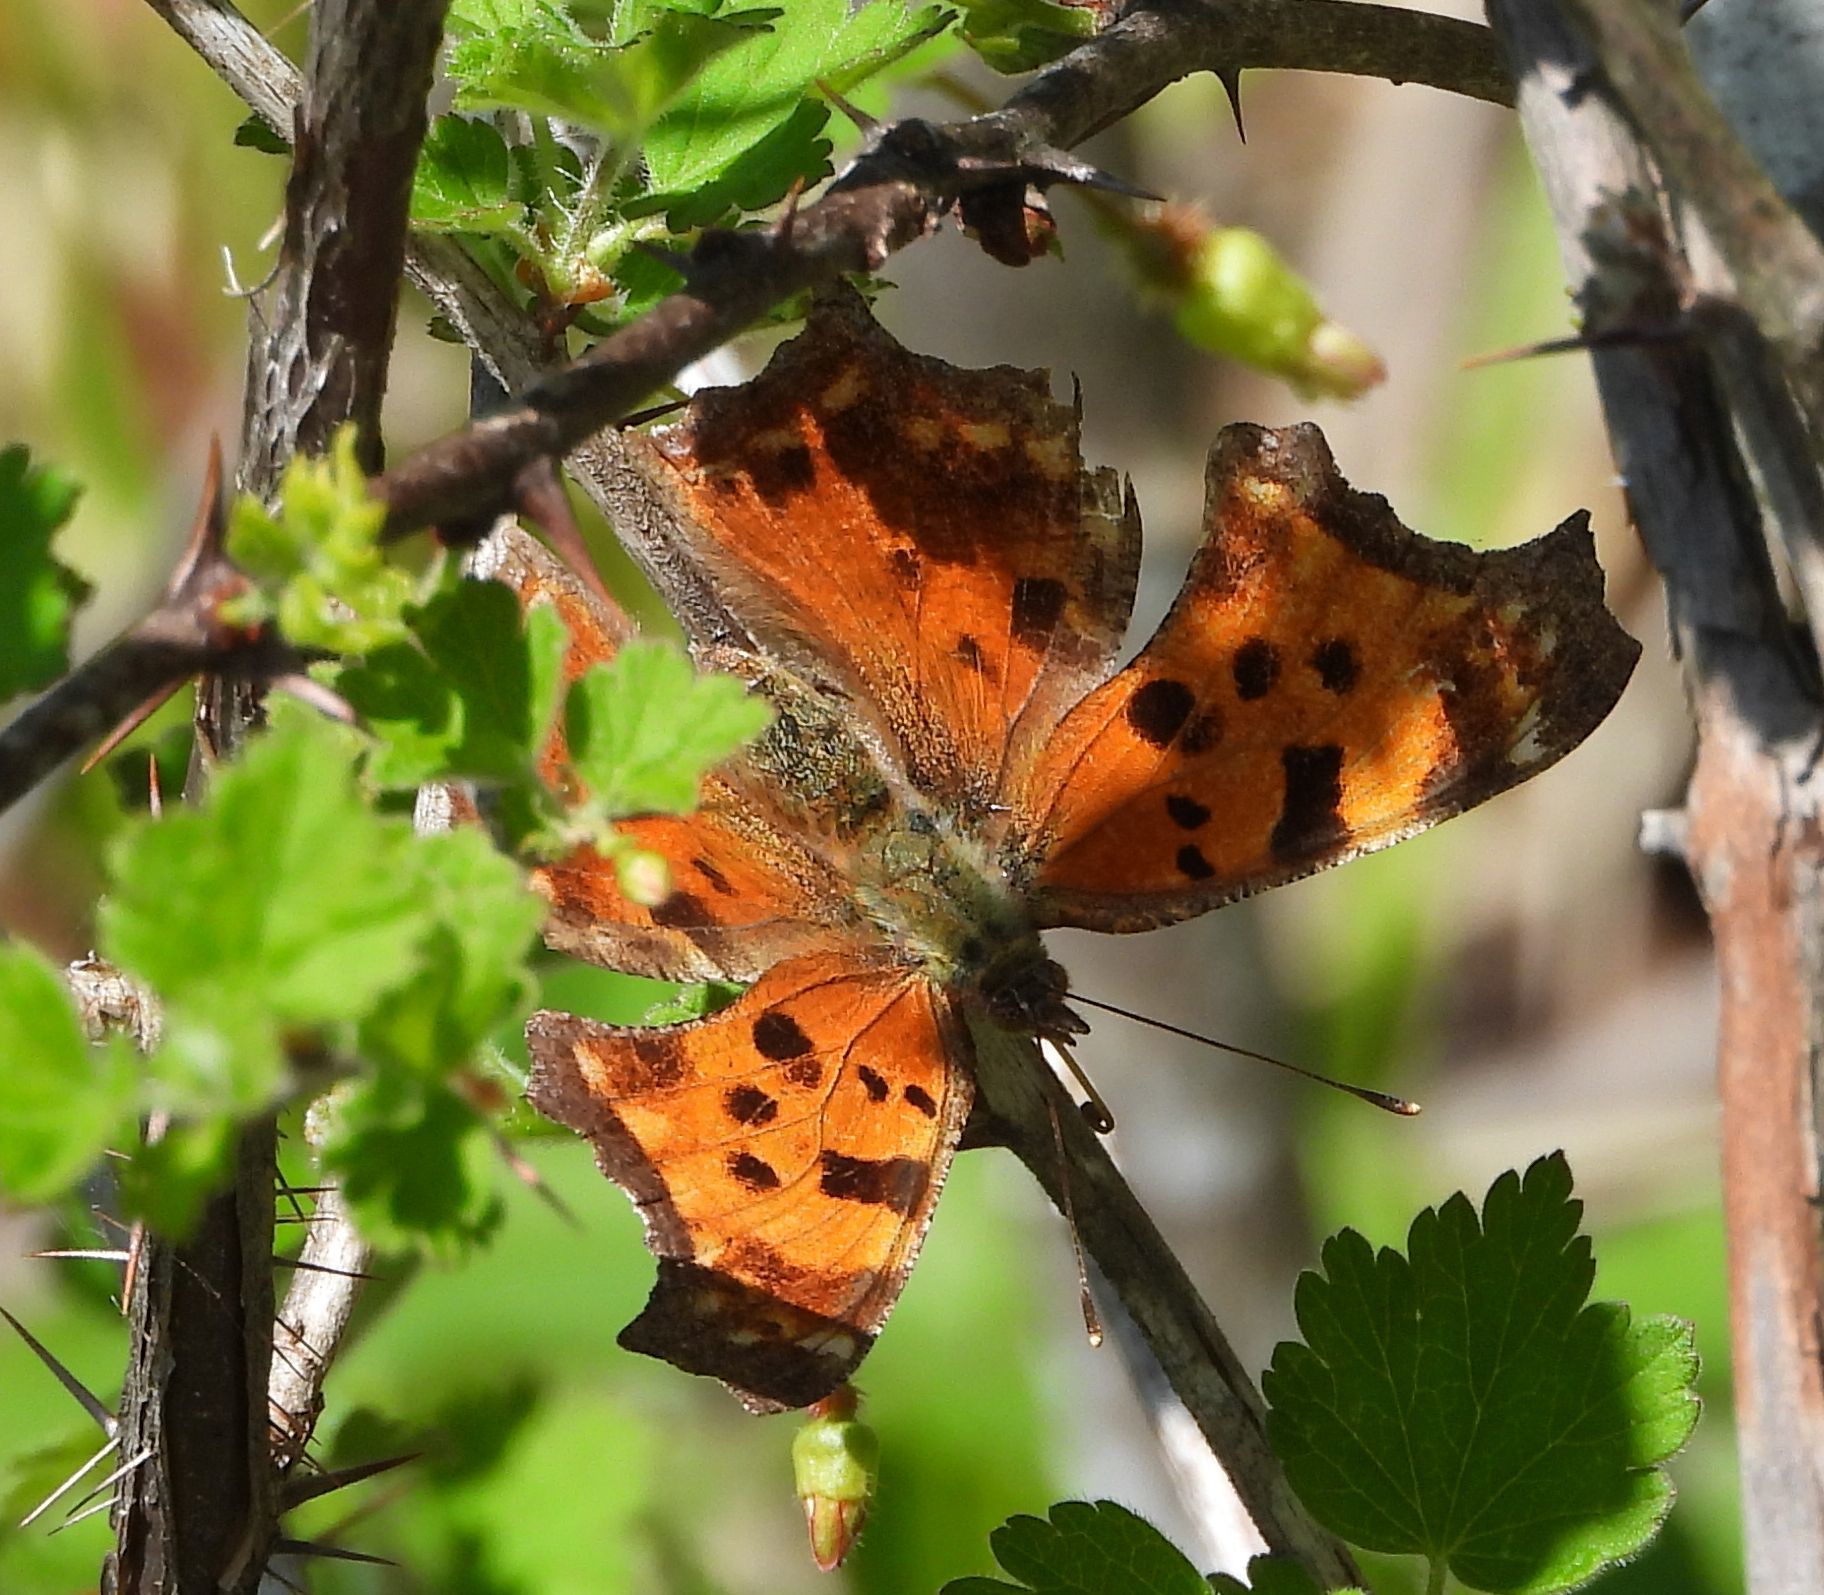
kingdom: Animalia
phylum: Arthropoda
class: Insecta
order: Lepidoptera
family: Nymphalidae
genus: Polygonia
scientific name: Polygonia comma
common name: Eastern comma
